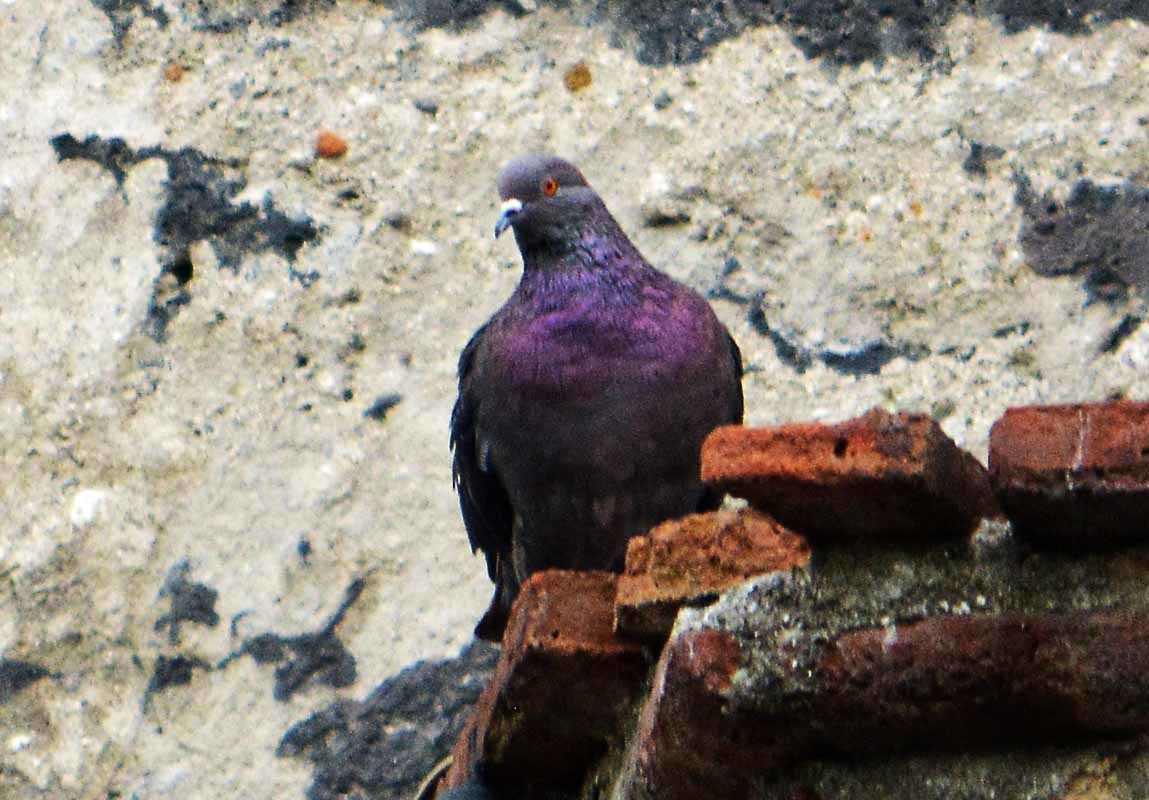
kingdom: Animalia
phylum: Chordata
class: Aves
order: Columbiformes
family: Columbidae
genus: Columba
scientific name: Columba livia
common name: Rock pigeon
